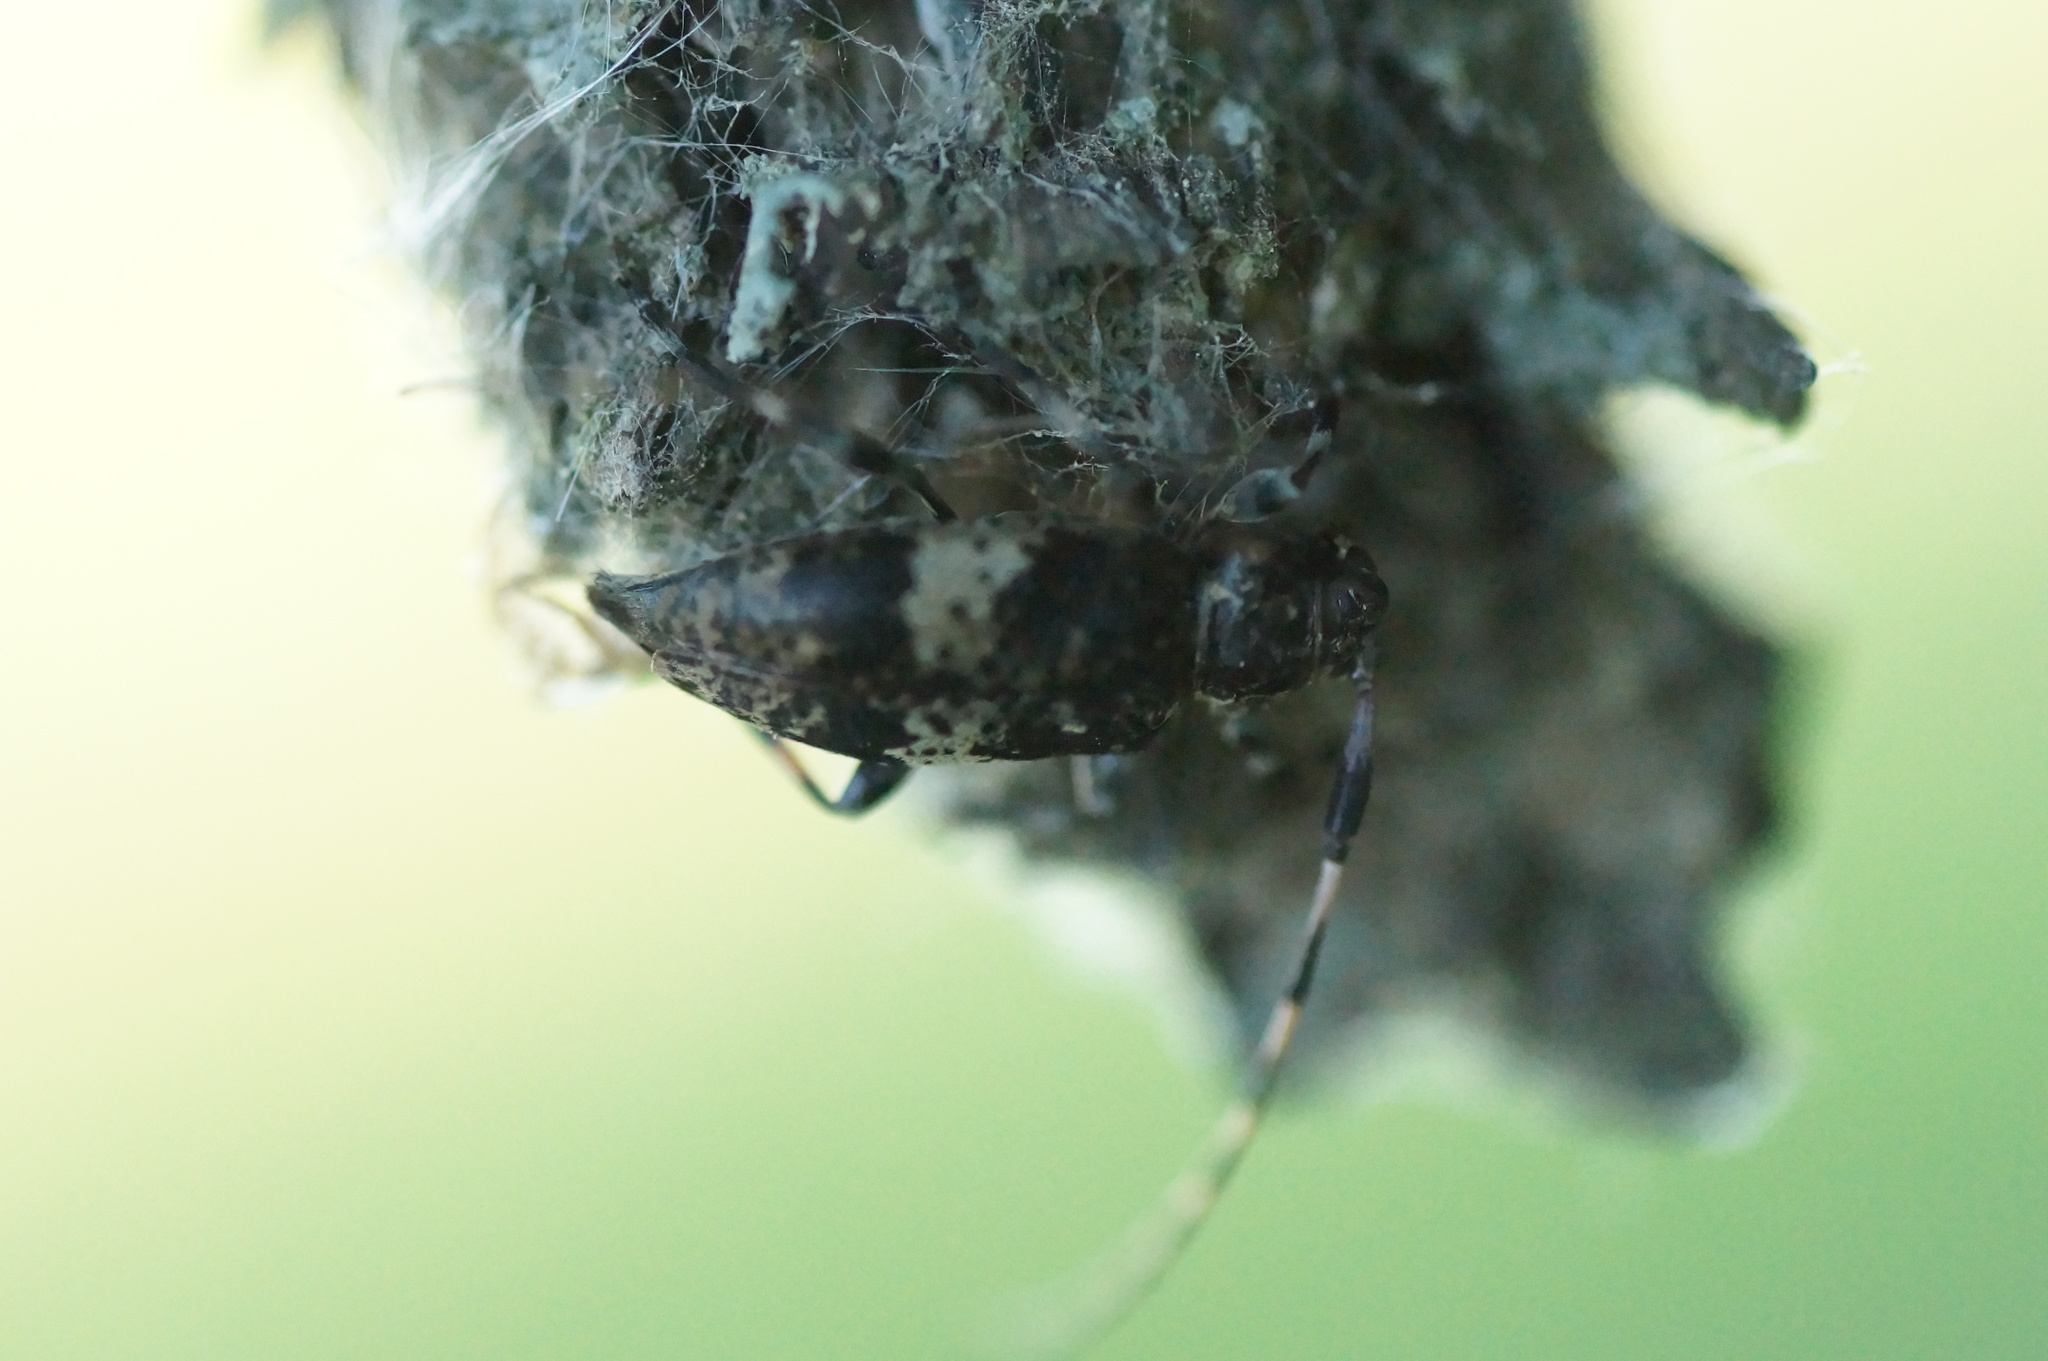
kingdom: Animalia
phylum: Arthropoda
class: Insecta
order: Coleoptera
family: Cerambycidae
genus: Leiopus
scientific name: Leiopus
